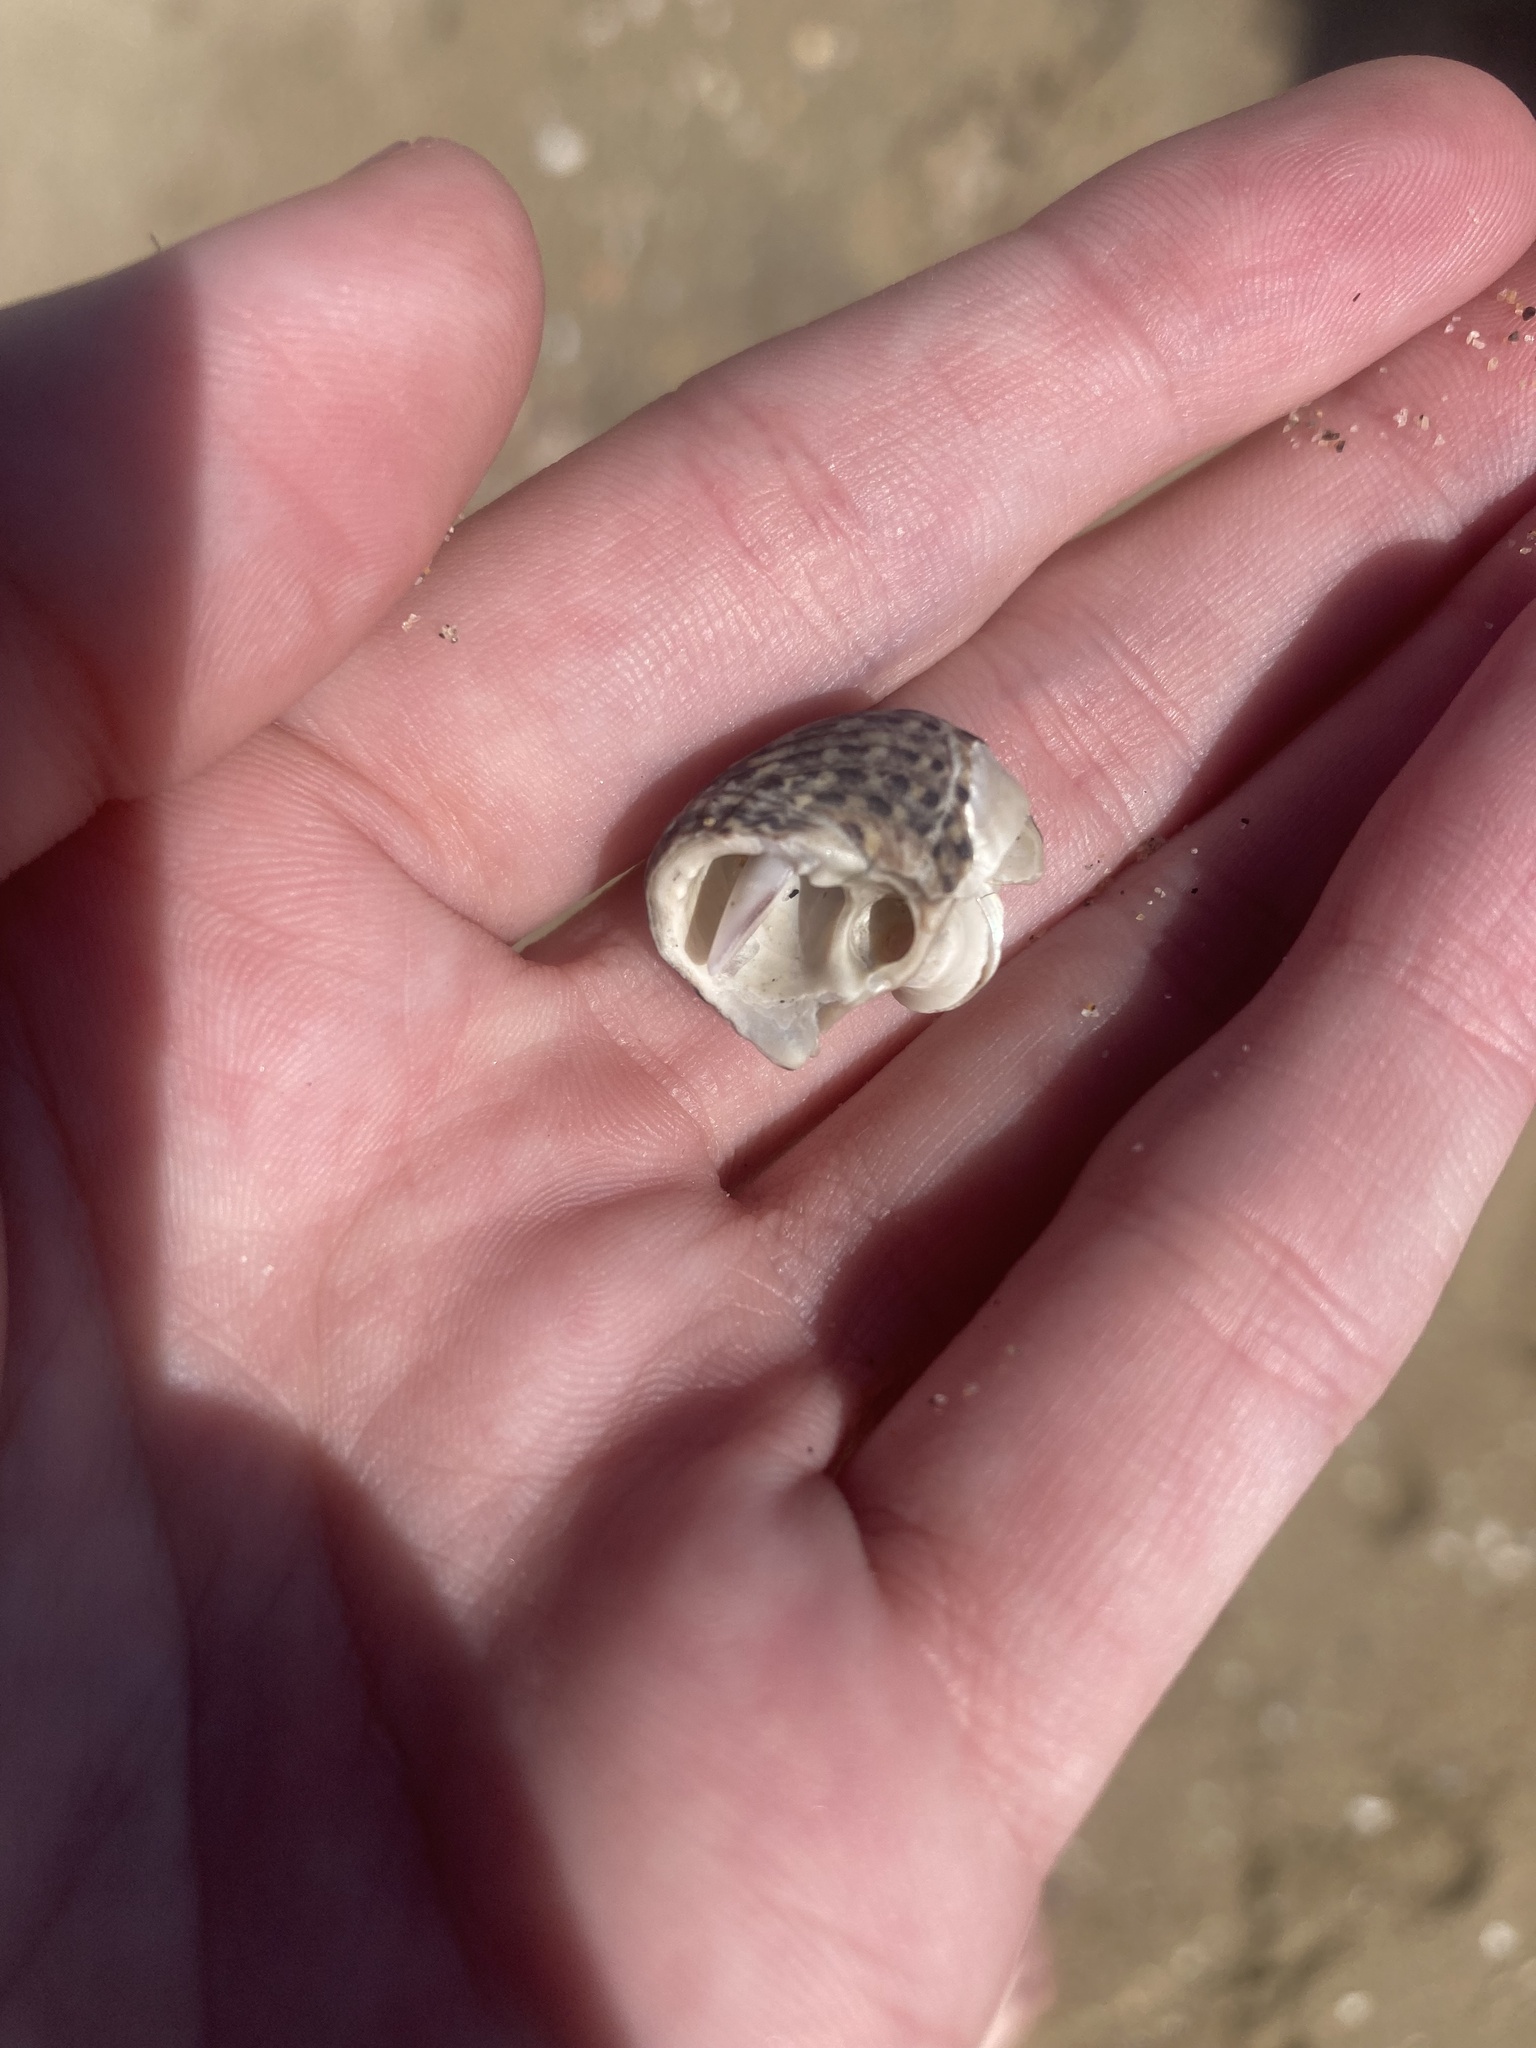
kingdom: Animalia
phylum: Mollusca
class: Gastropoda
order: Trochida
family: Tegulidae
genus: Tegula
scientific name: Tegula eiseni
